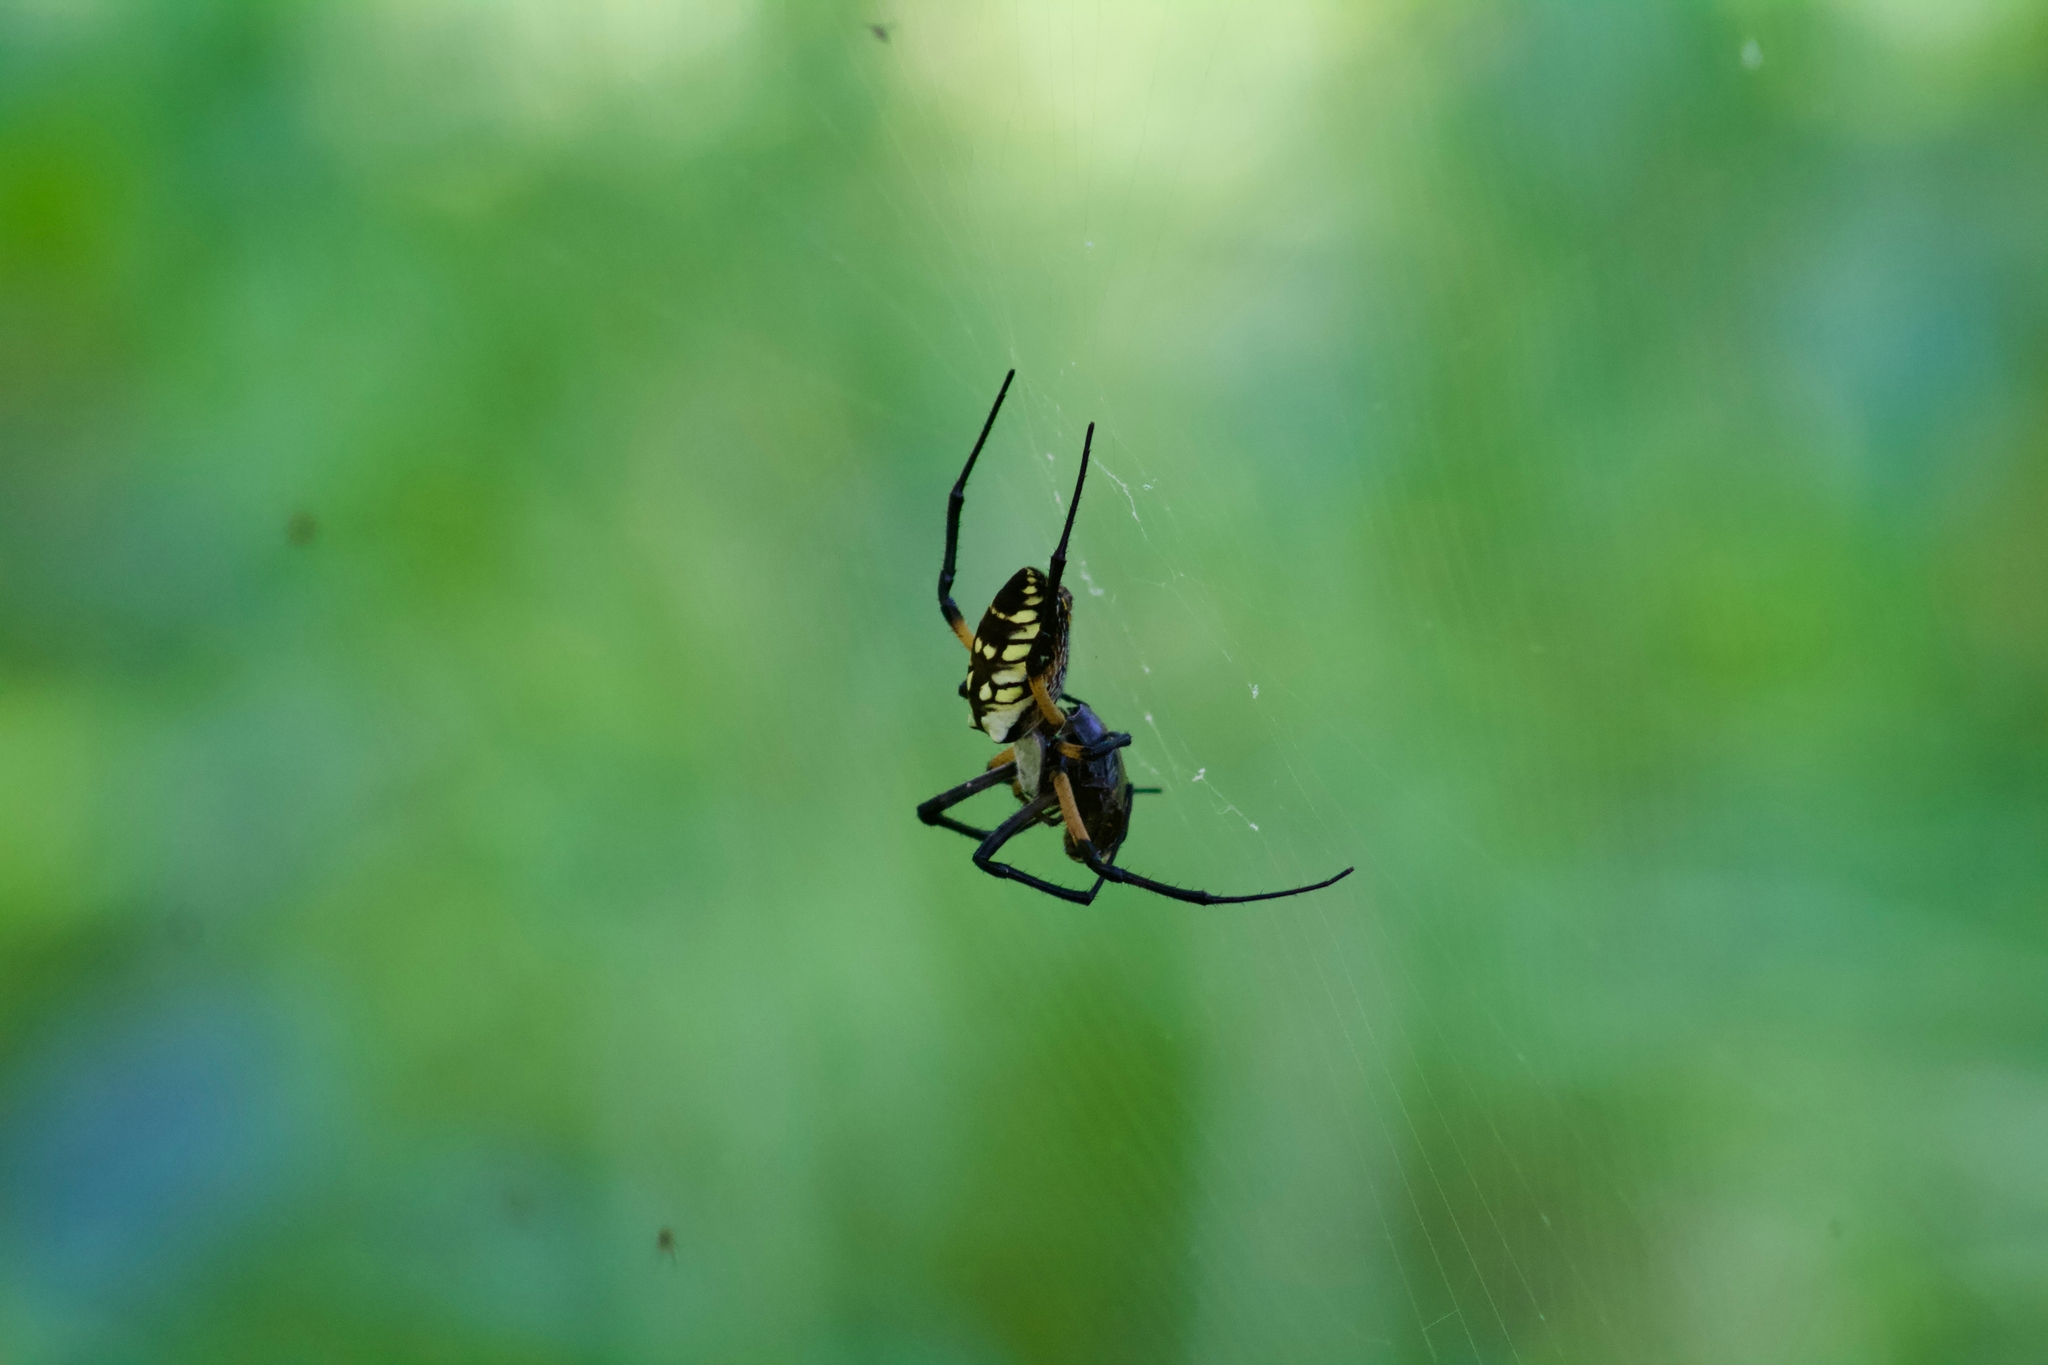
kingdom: Animalia
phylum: Arthropoda
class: Arachnida
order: Araneae
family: Araneidae
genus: Argiope
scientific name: Argiope aurantia
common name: Orb weavers
